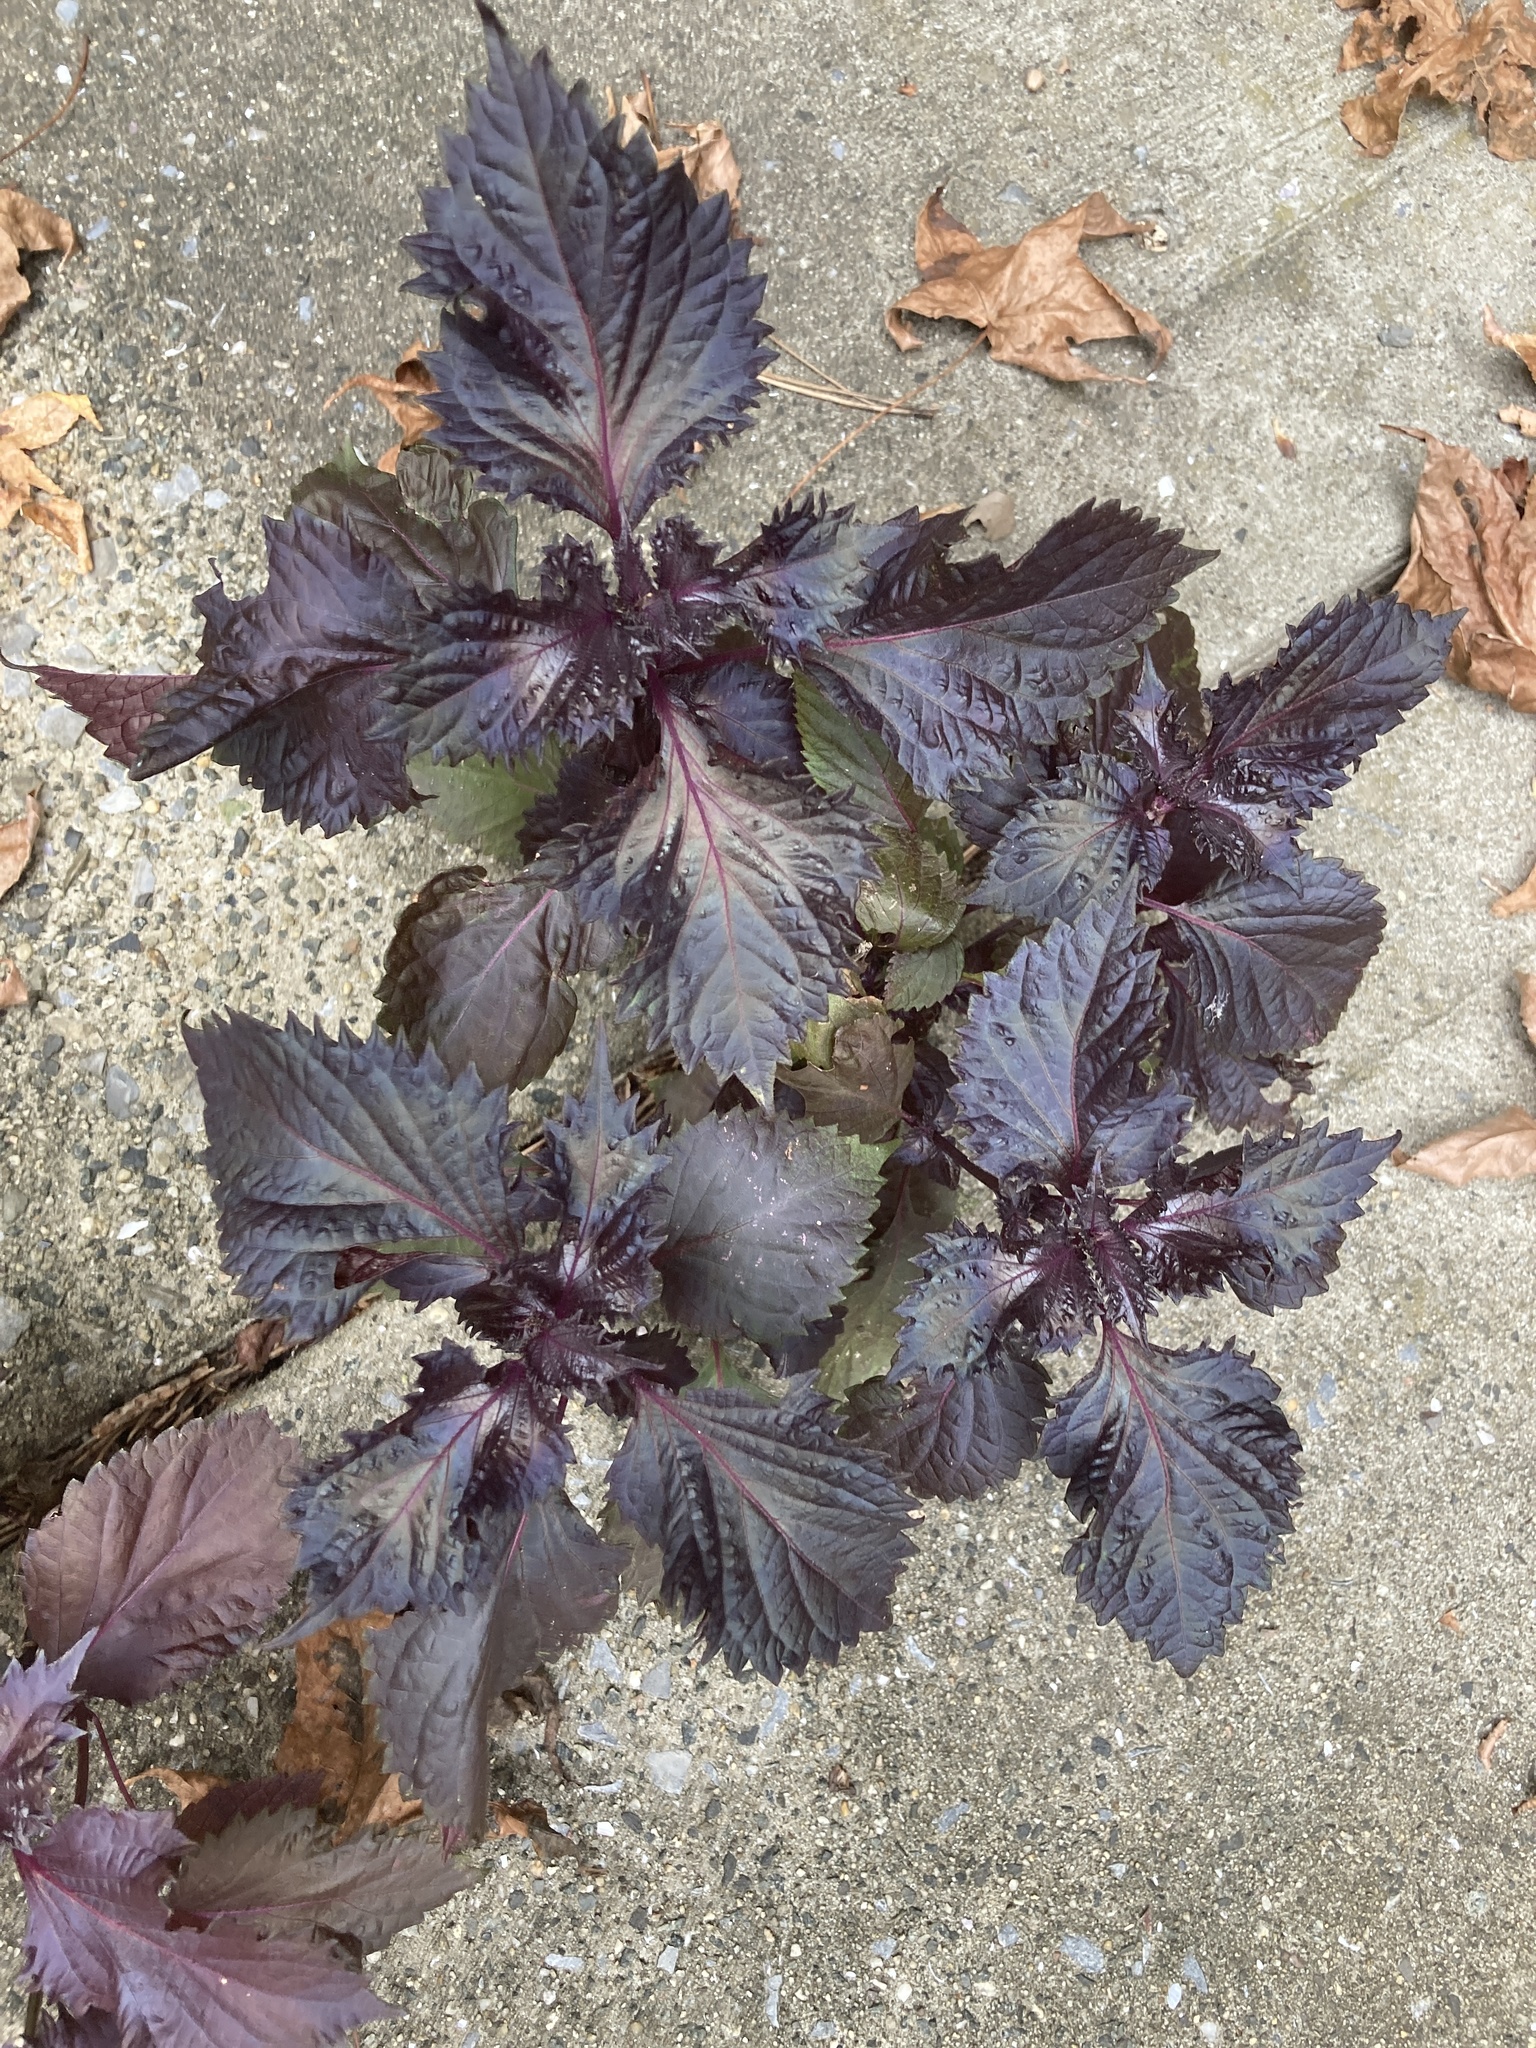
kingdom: Plantae
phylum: Tracheophyta
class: Magnoliopsida
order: Lamiales
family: Lamiaceae
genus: Perilla
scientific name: Perilla frutescens
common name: Perilla
